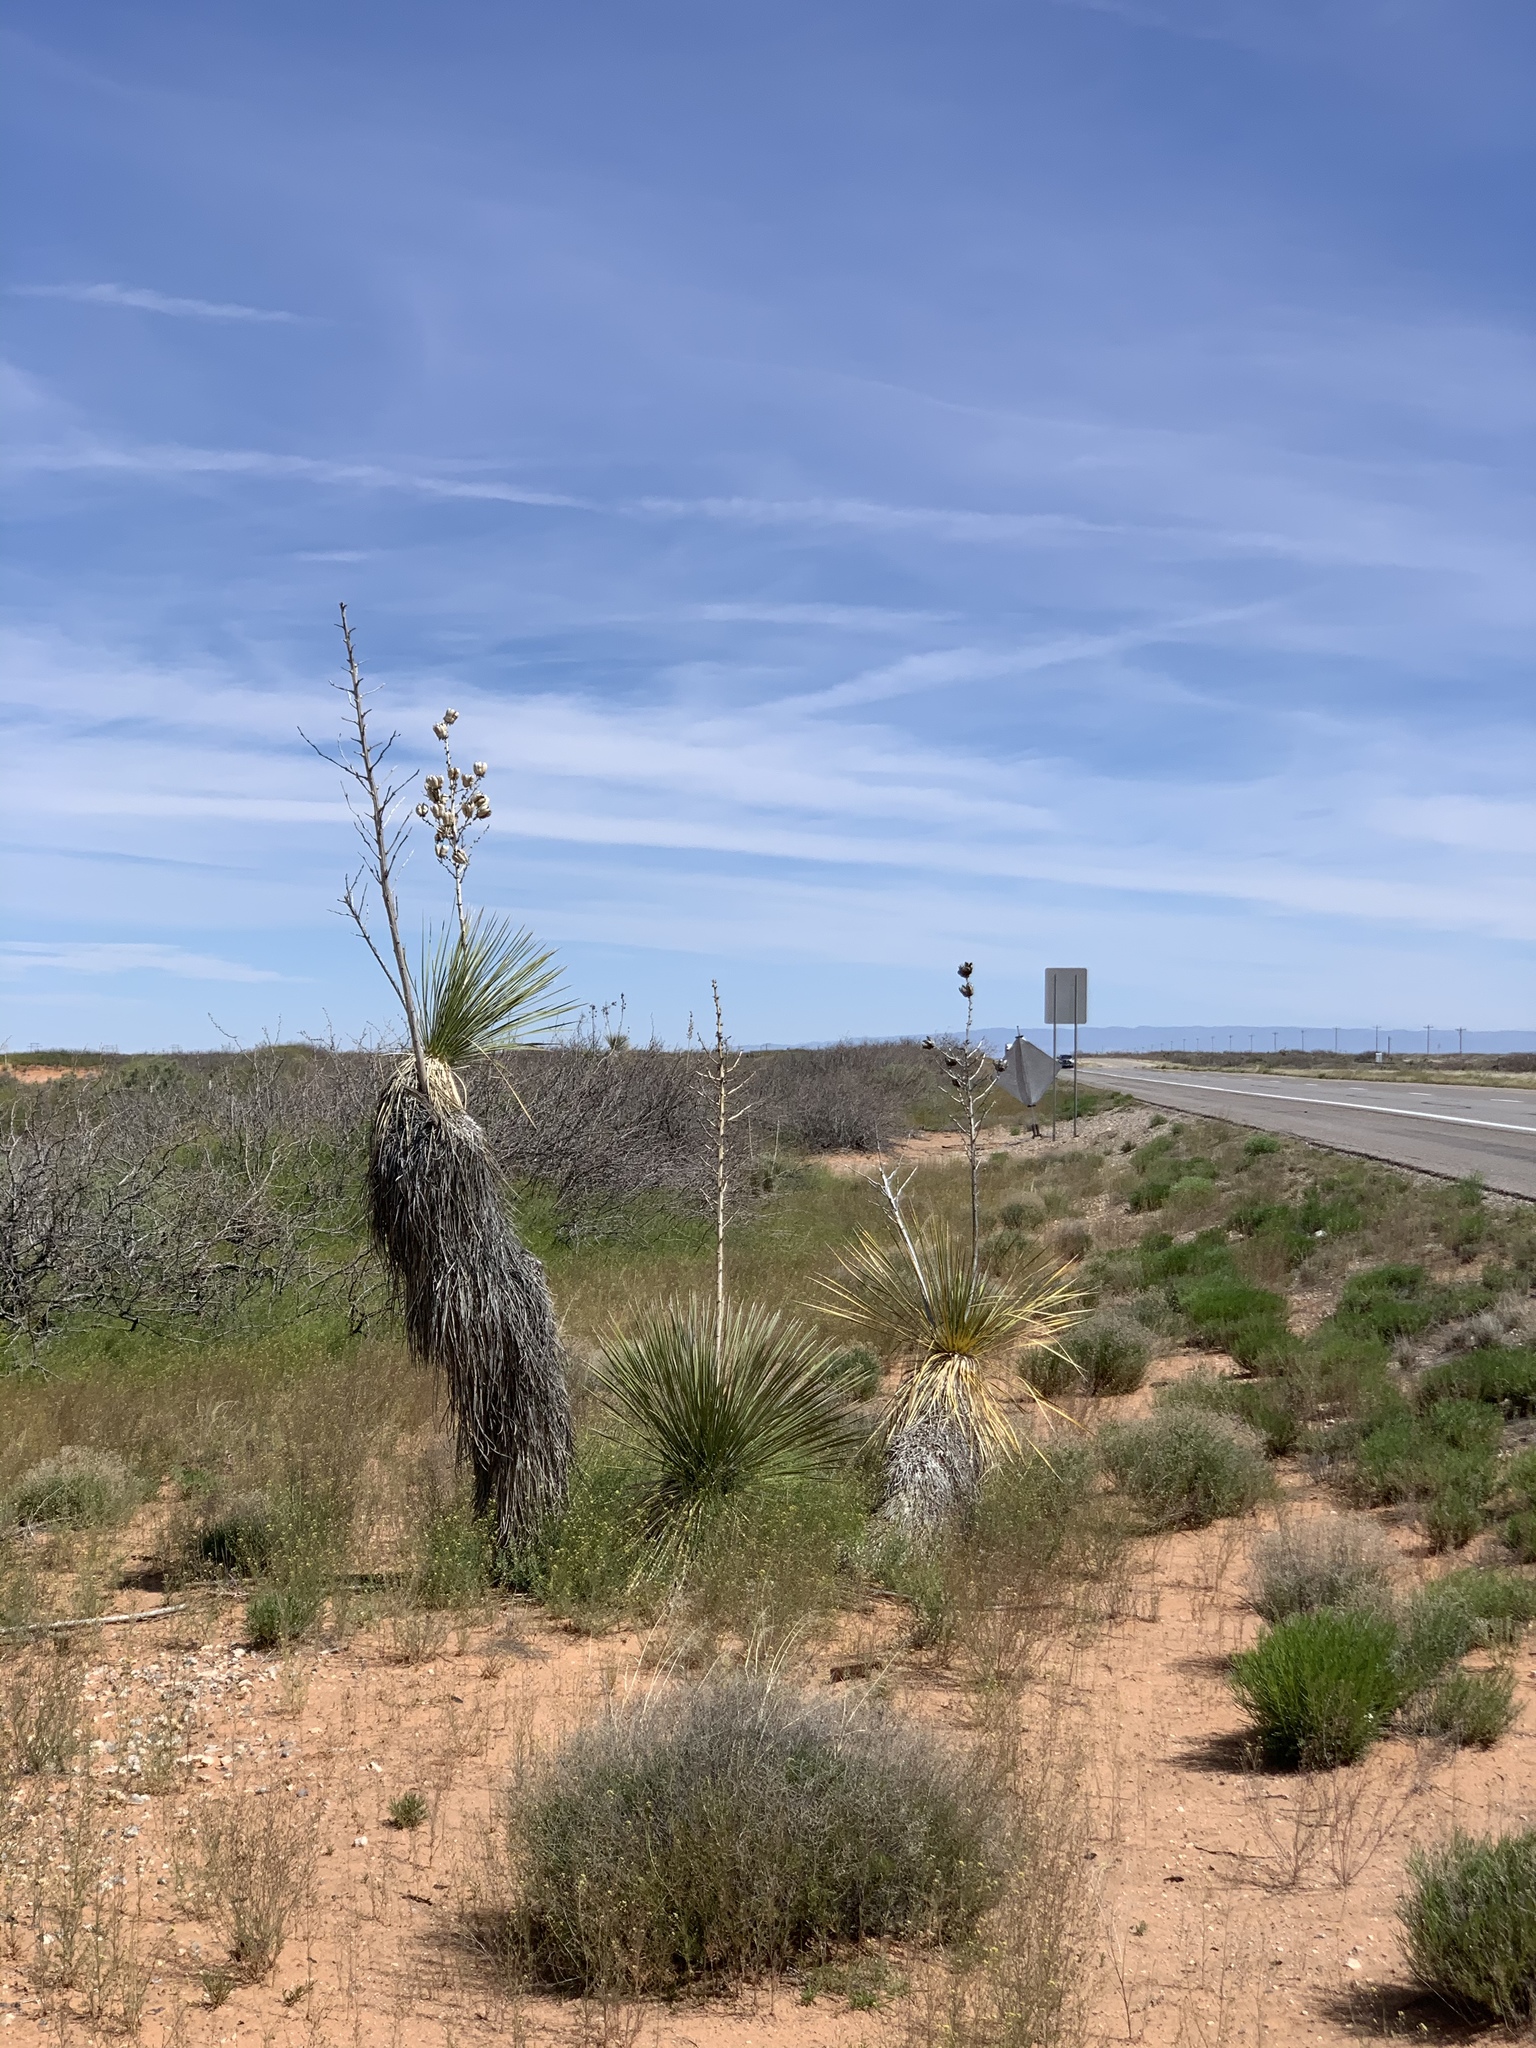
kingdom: Plantae
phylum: Tracheophyta
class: Liliopsida
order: Asparagales
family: Asparagaceae
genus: Yucca
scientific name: Yucca elata
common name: Palmella
